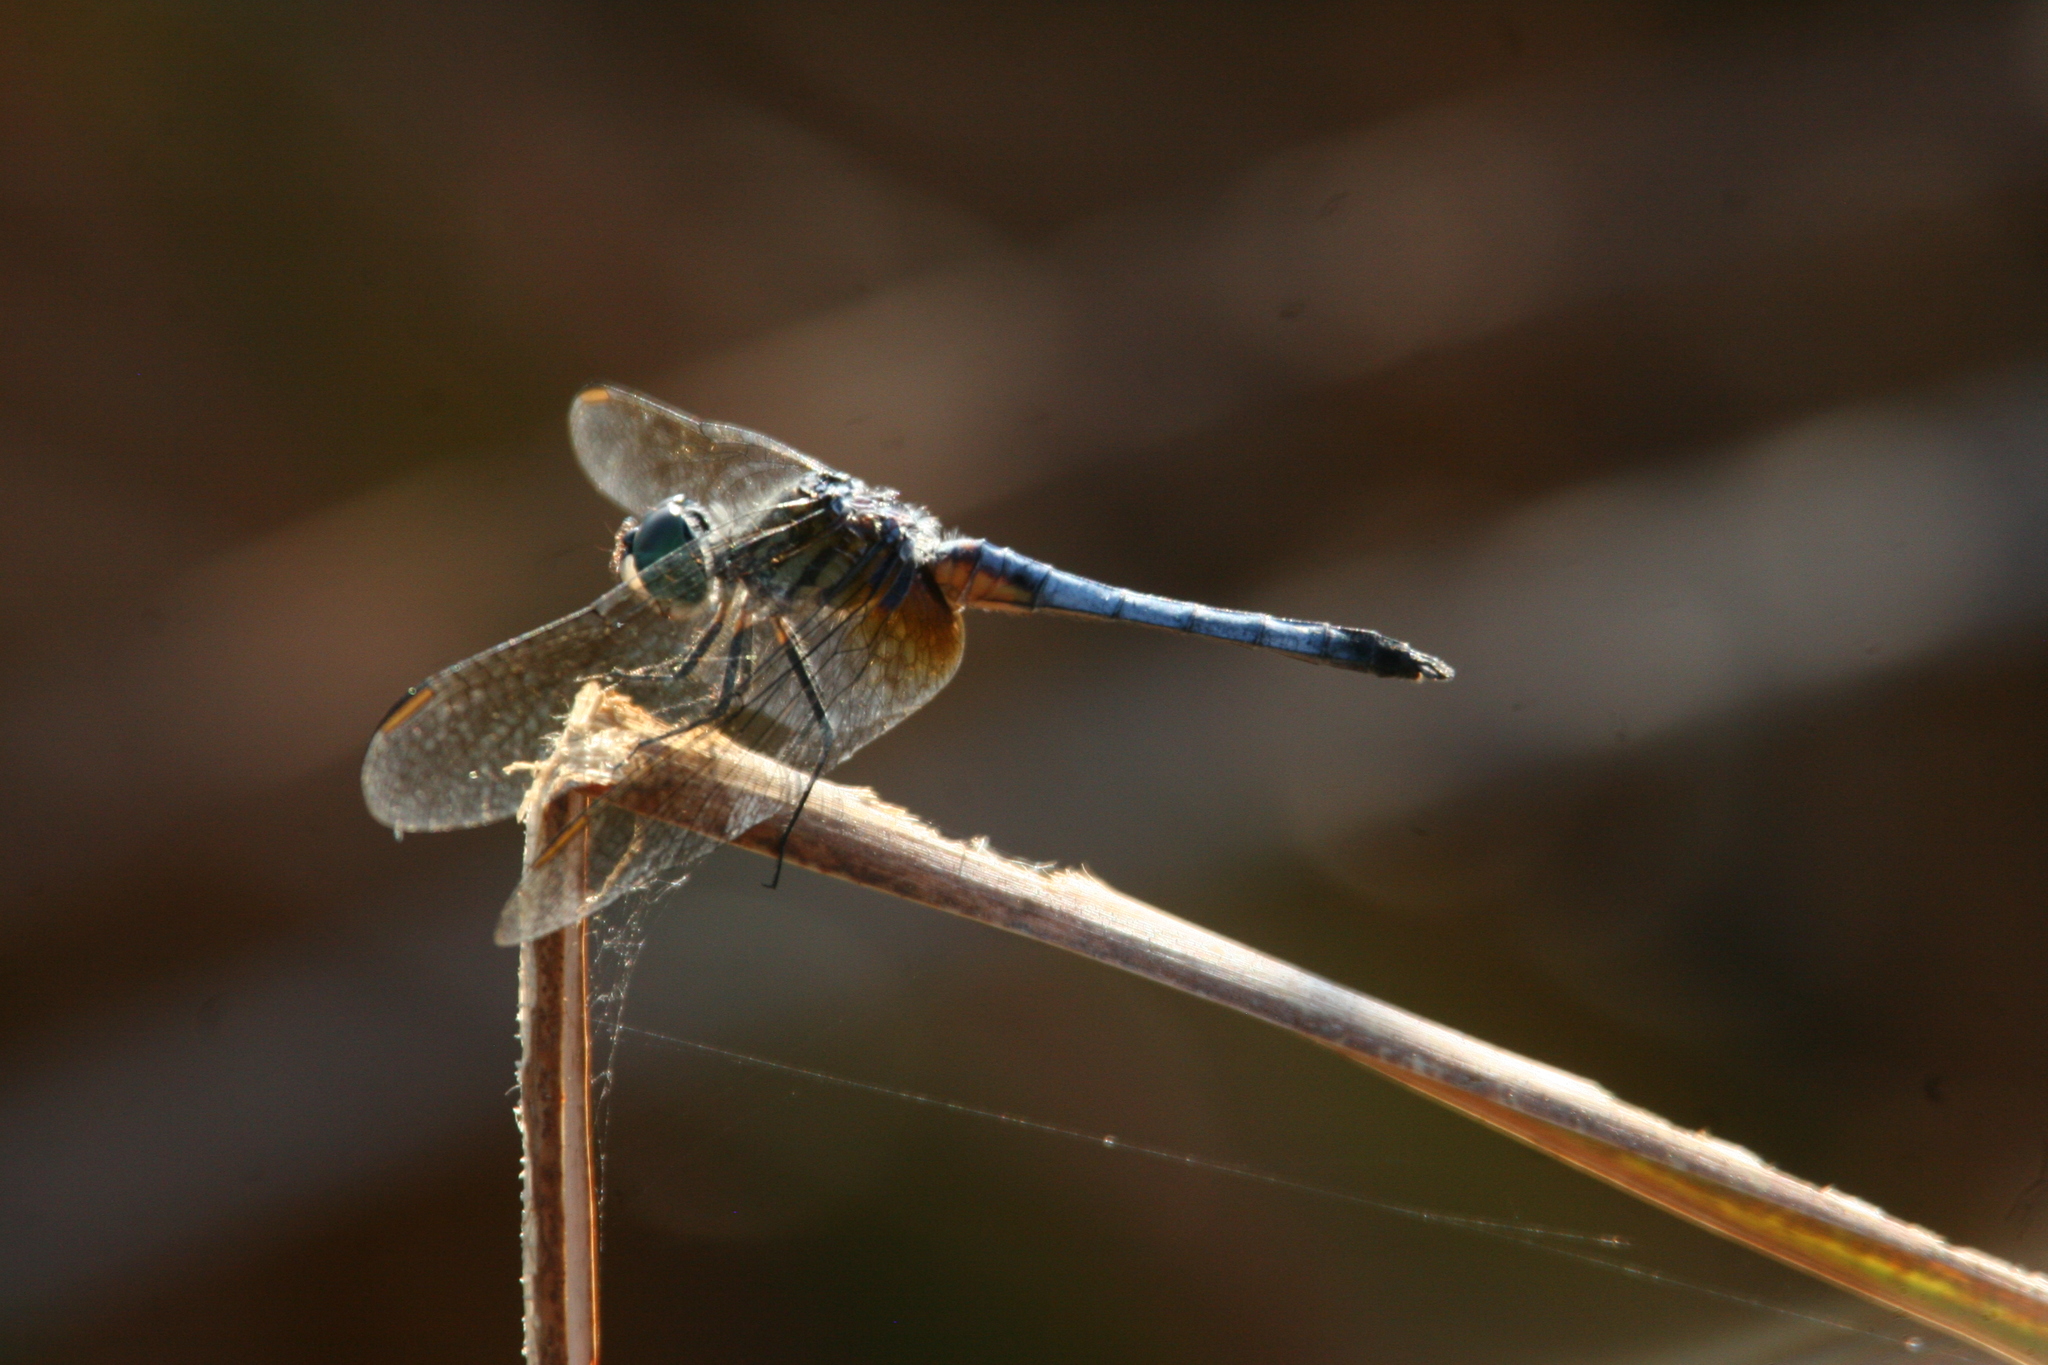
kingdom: Animalia
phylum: Arthropoda
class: Insecta
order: Odonata
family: Libellulidae
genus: Pachydiplax
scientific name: Pachydiplax longipennis
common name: Blue dasher
